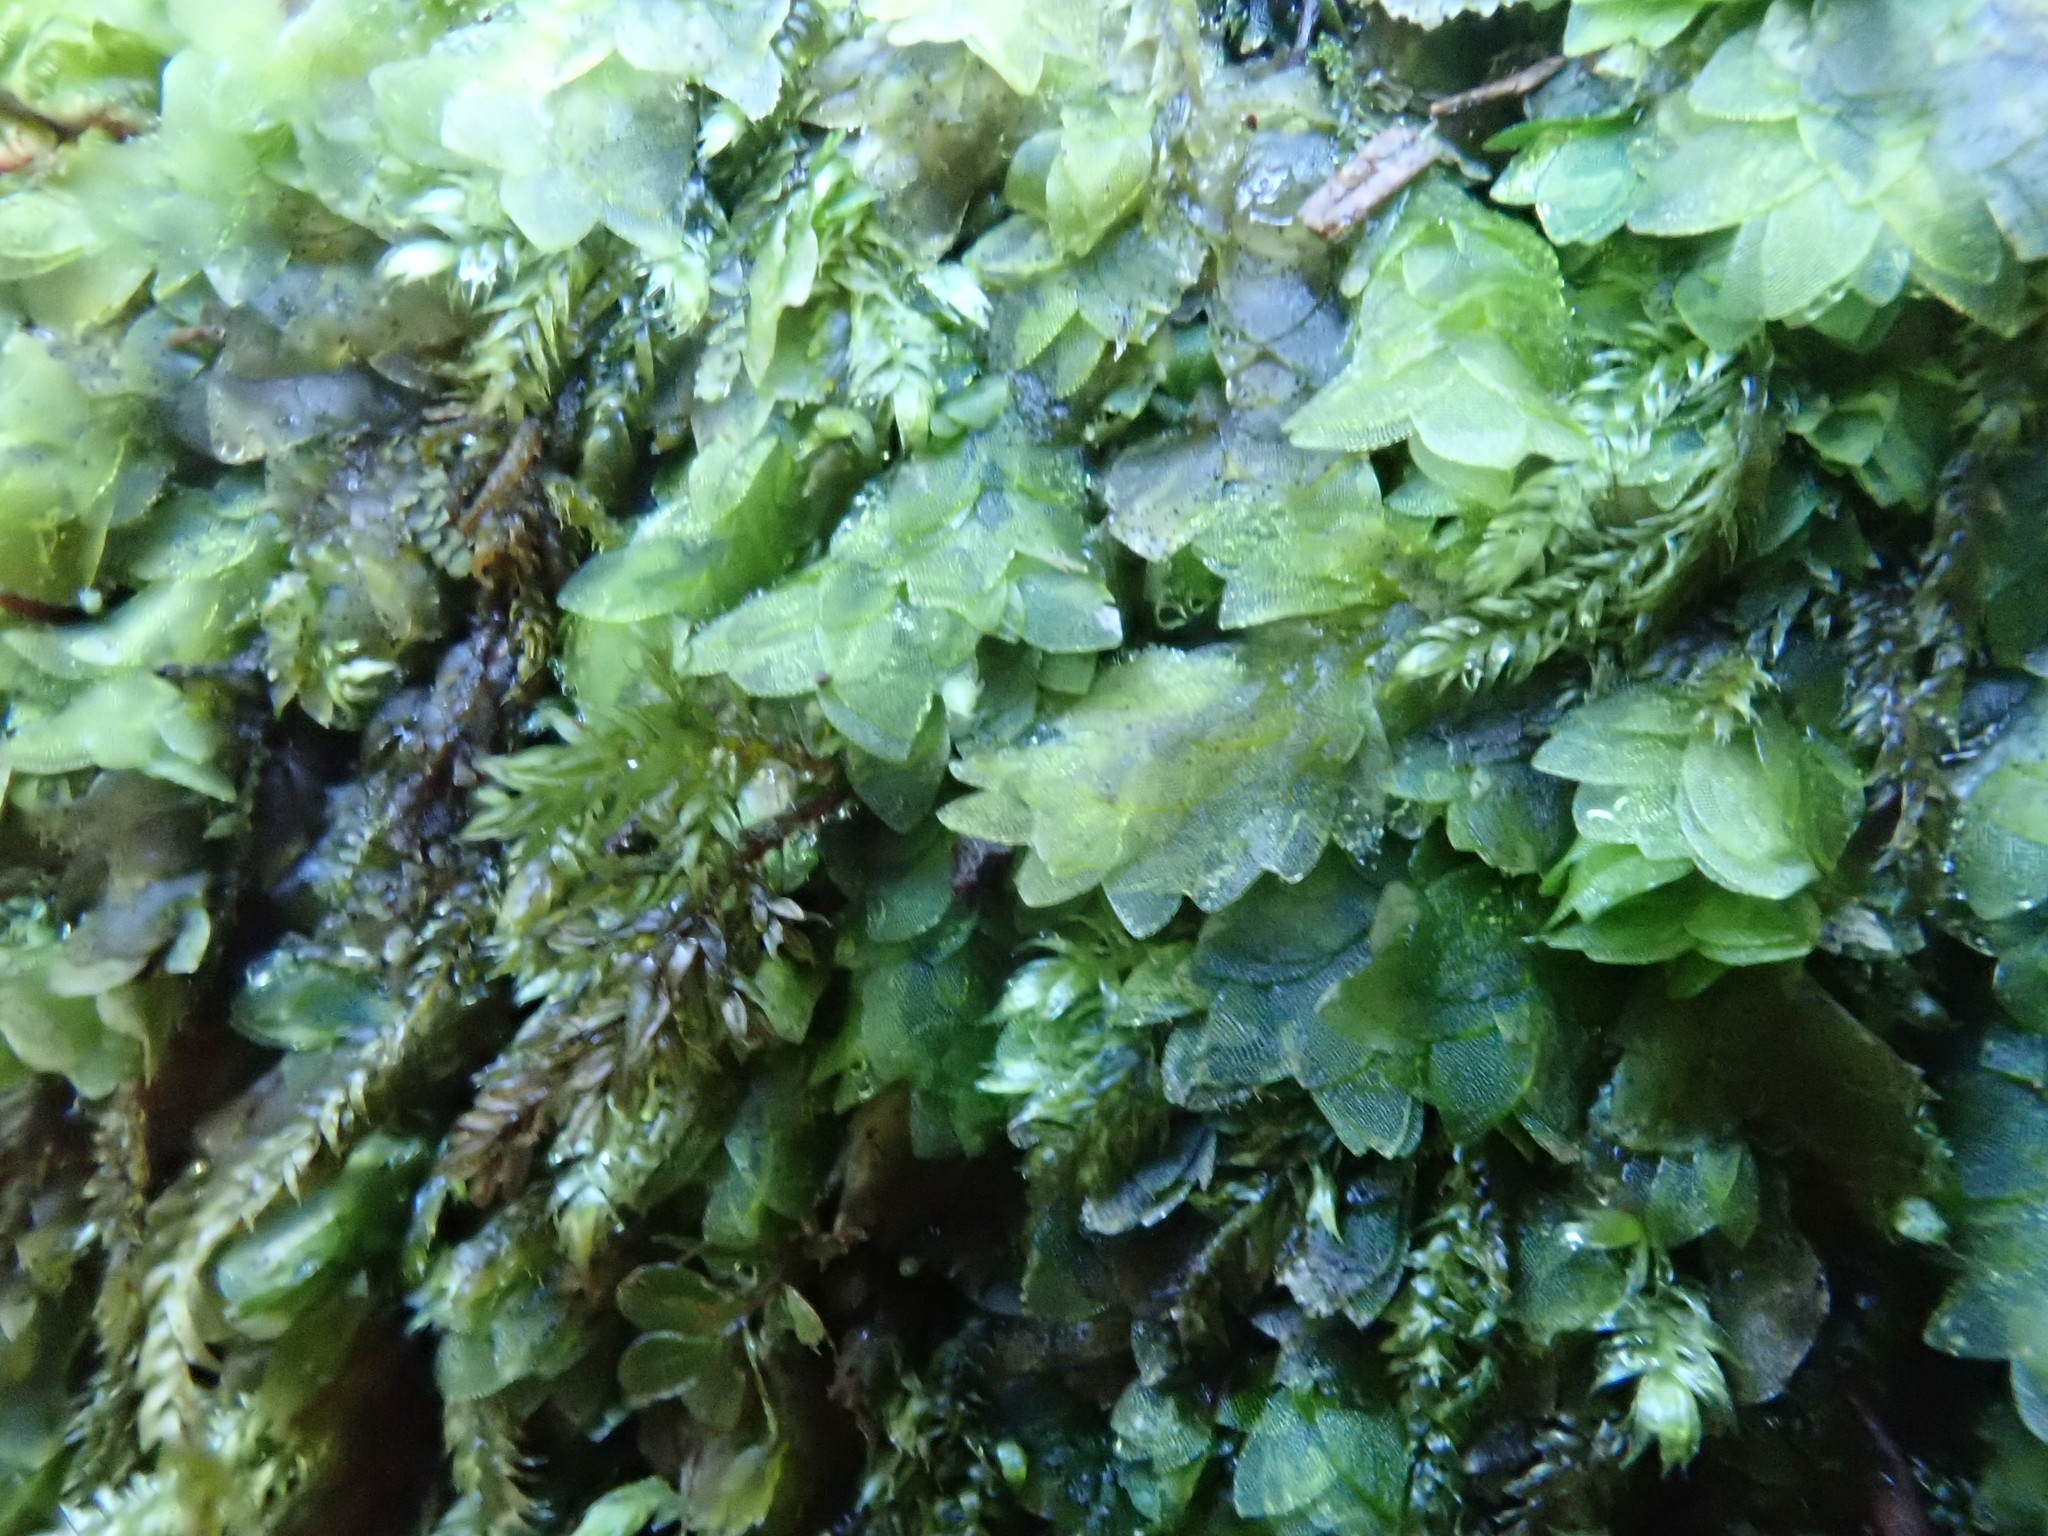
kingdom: Plantae
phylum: Bryophyta
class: Bryopsida
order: Hookeriales
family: Hookeriaceae
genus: Hookeria
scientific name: Hookeria lucens
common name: Shining hookeria
